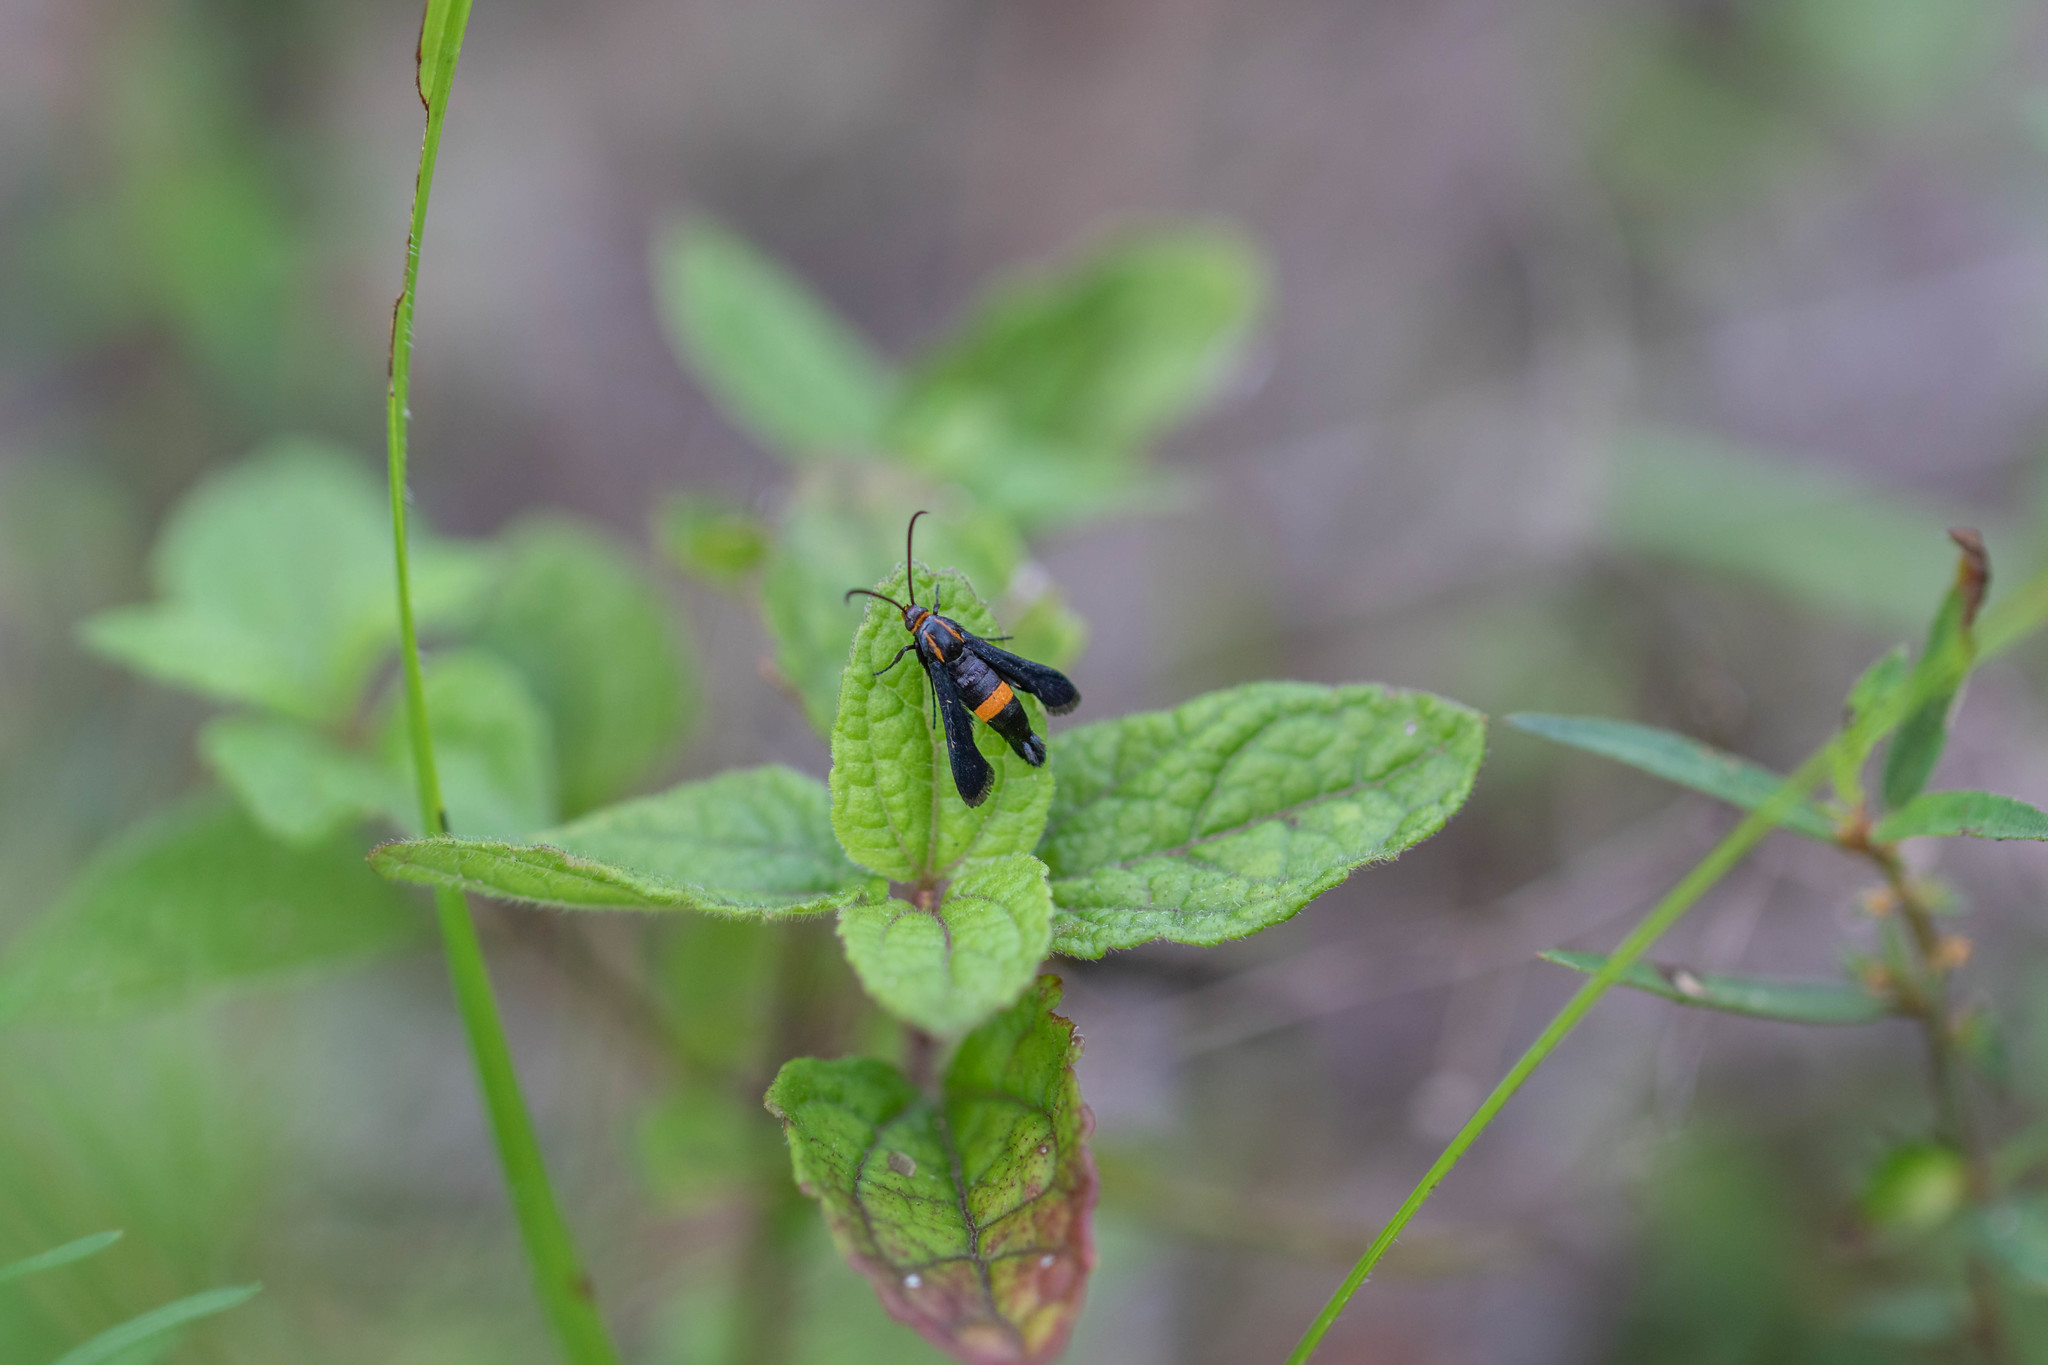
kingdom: Animalia
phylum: Arthropoda
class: Insecta
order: Lepidoptera
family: Sesiidae
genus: Carmenta
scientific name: Carmenta pyralidiformis
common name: Boneset borer moth
